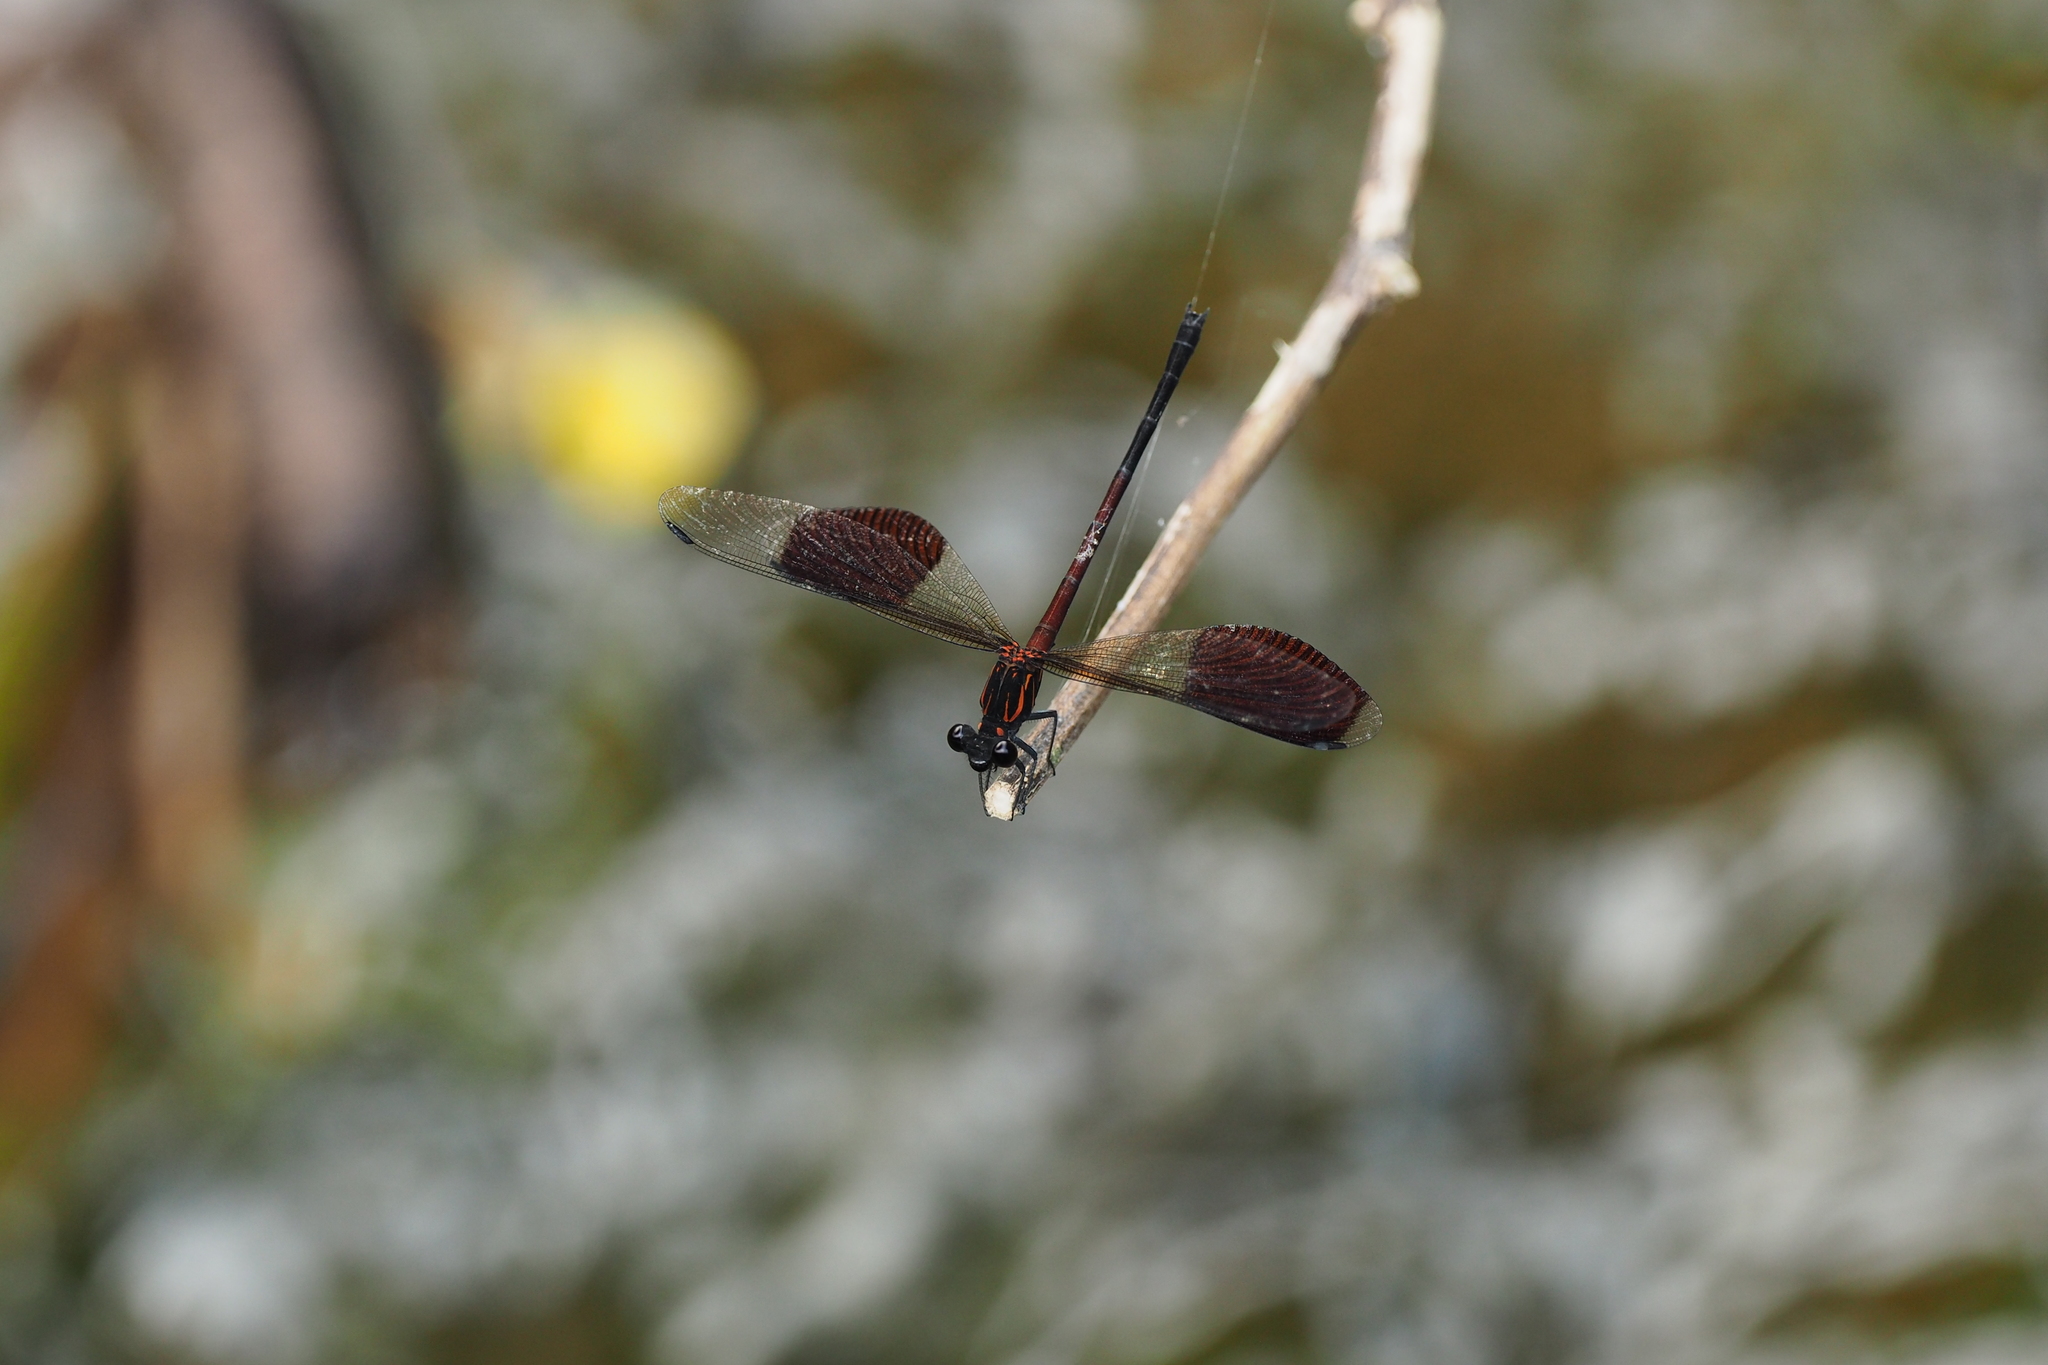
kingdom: Animalia
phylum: Arthropoda
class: Insecta
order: Odonata
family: Euphaeidae
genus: Euphaea
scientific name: Euphaea formosa
